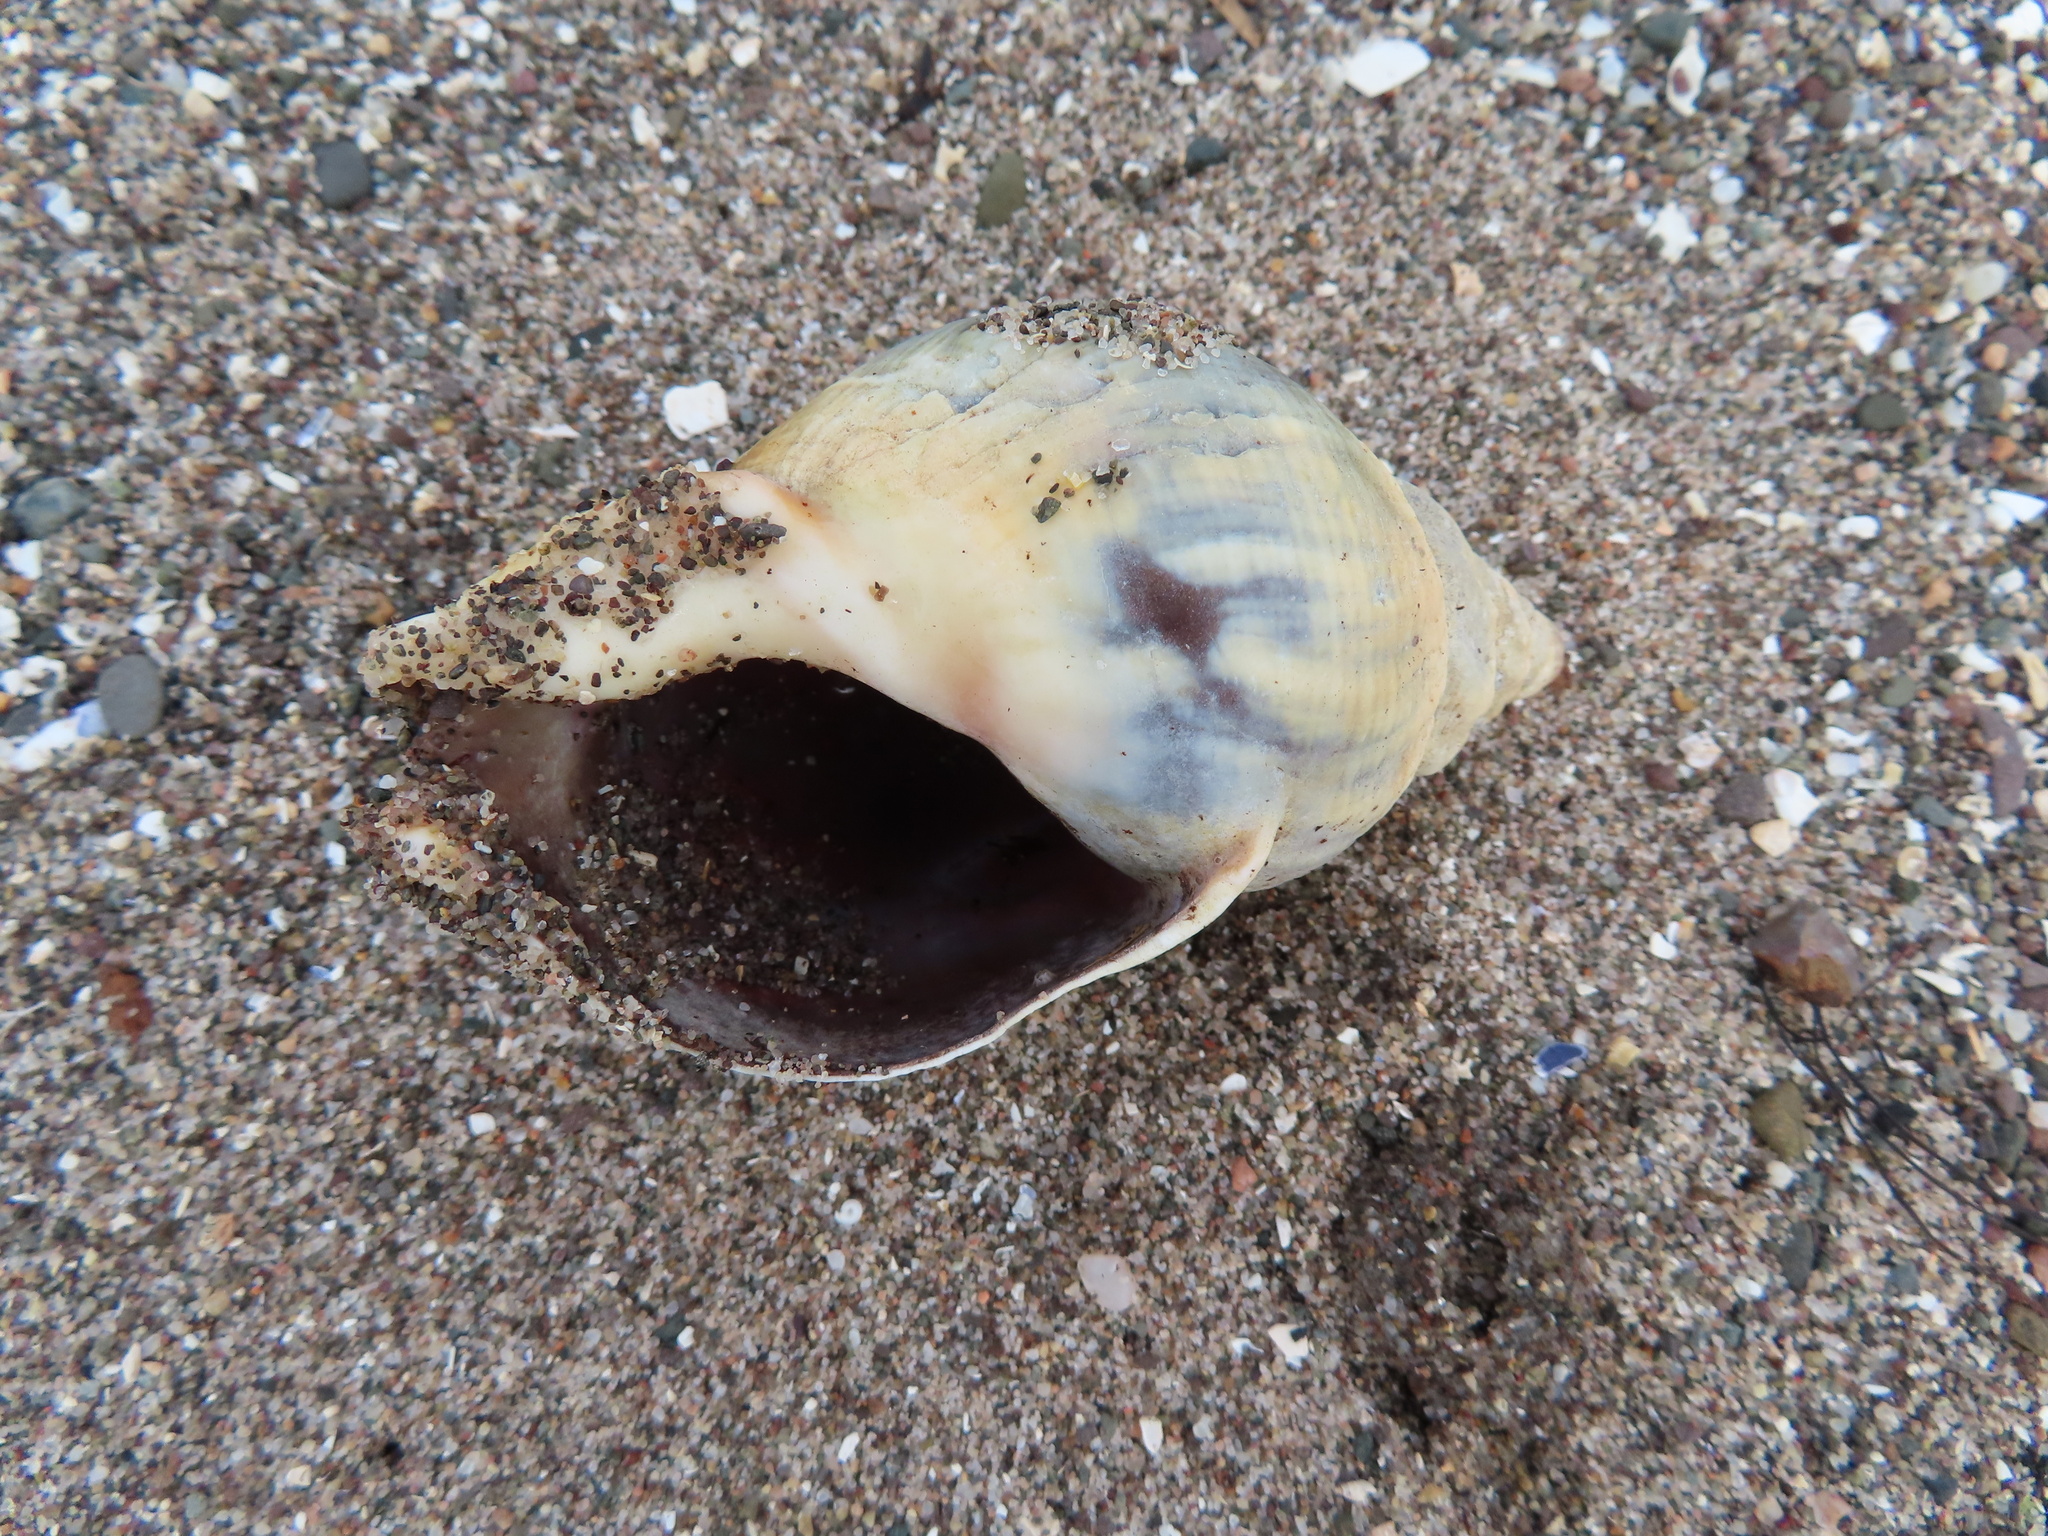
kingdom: Animalia
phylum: Mollusca
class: Gastropoda
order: Neogastropoda
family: Buccinidae
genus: Buccinum
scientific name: Buccinum undatum
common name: Common whelk
